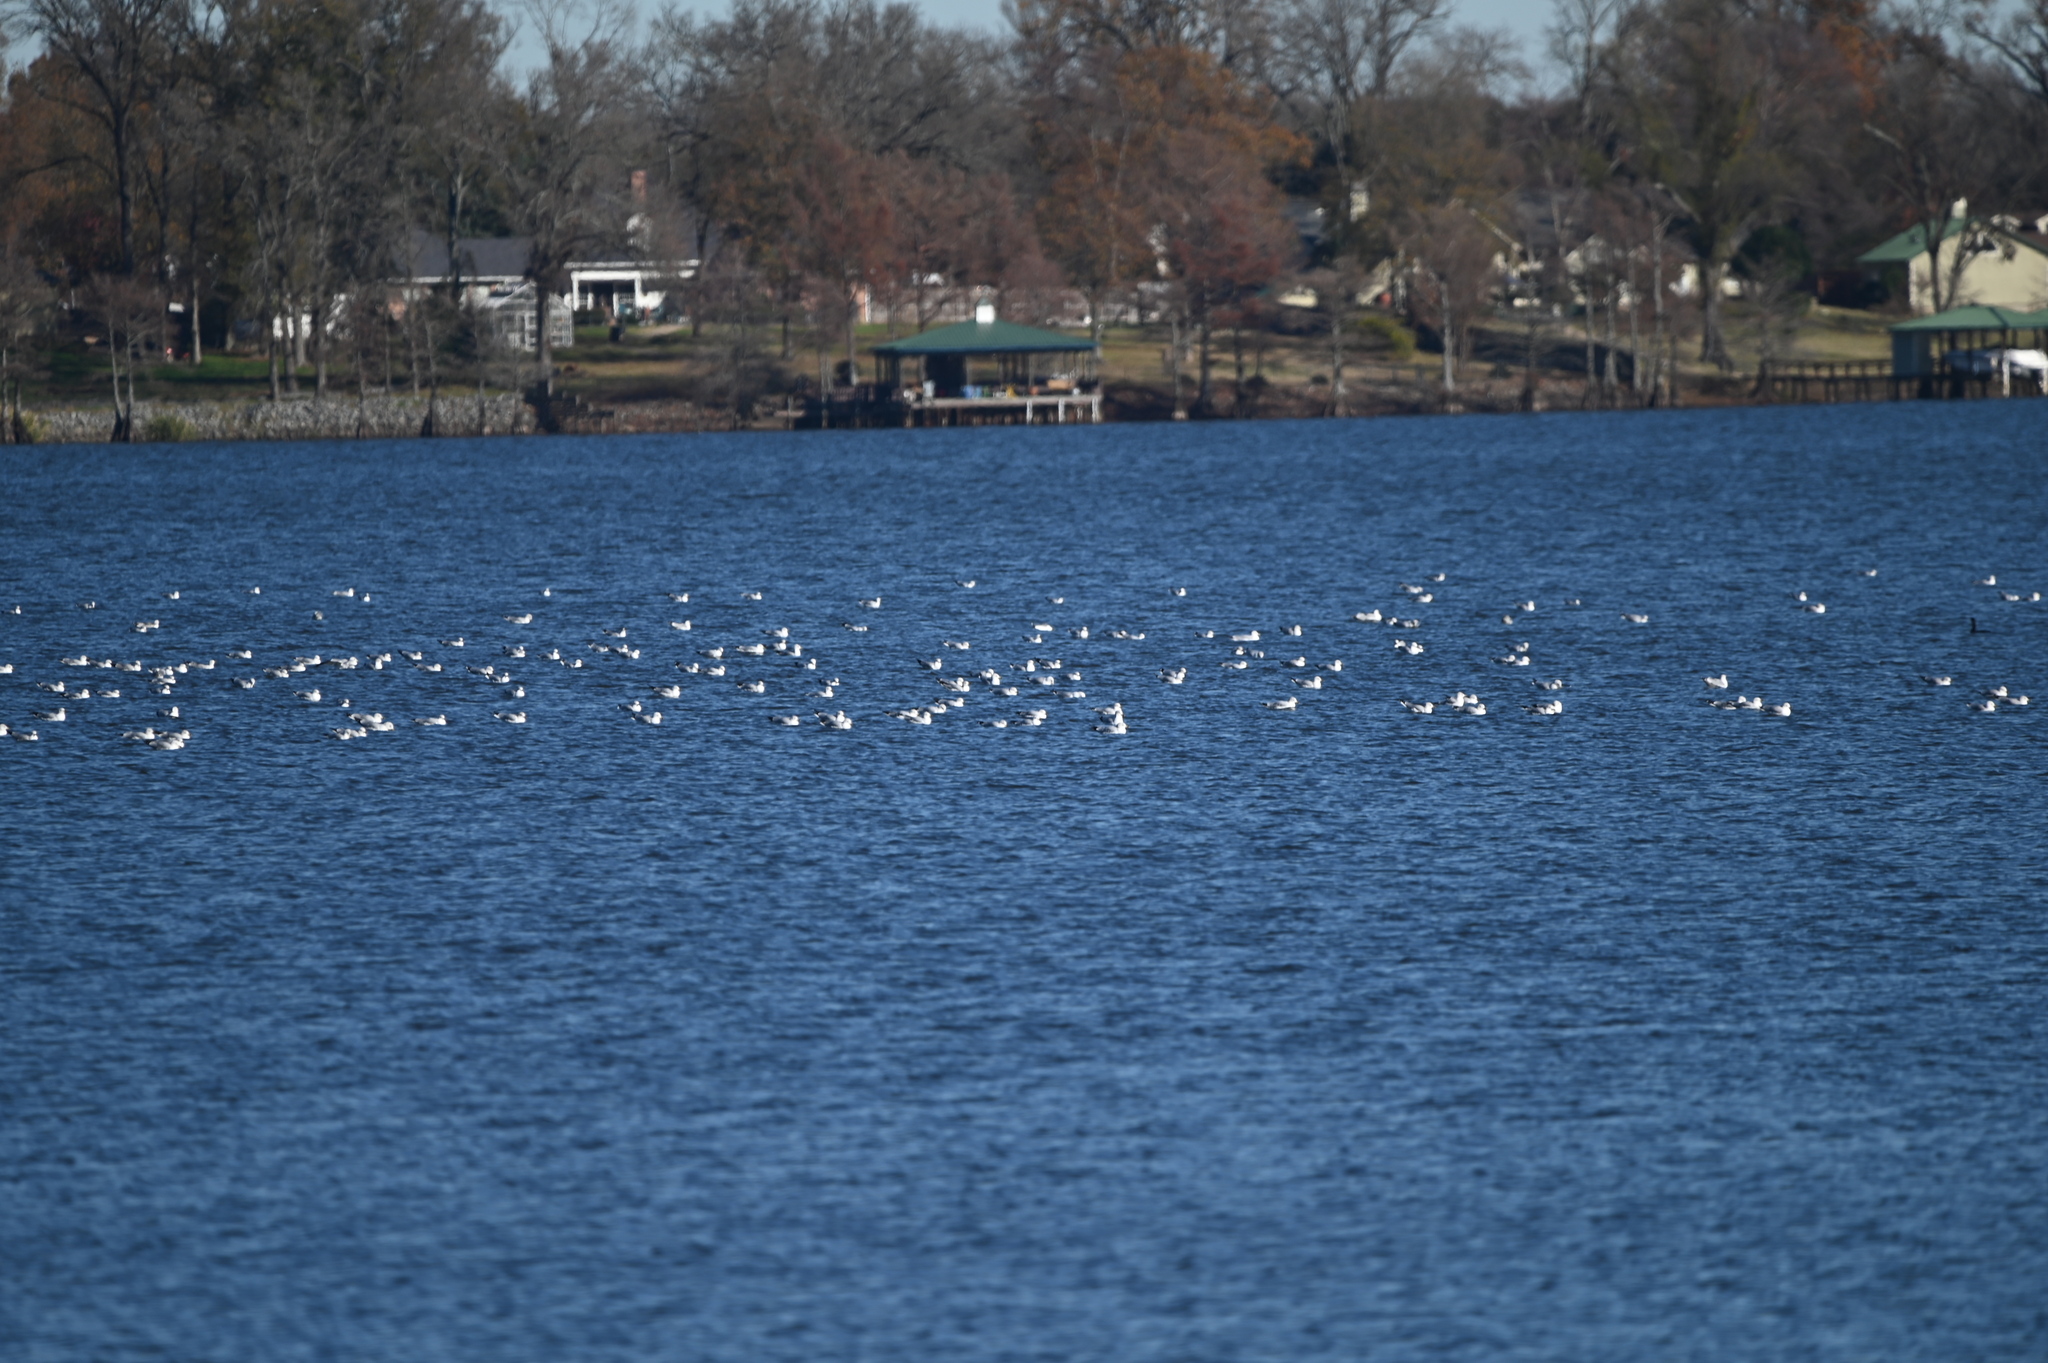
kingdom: Animalia
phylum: Chordata
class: Aves
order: Charadriiformes
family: Laridae
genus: Larus
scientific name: Larus delawarensis
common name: Ring-billed gull
